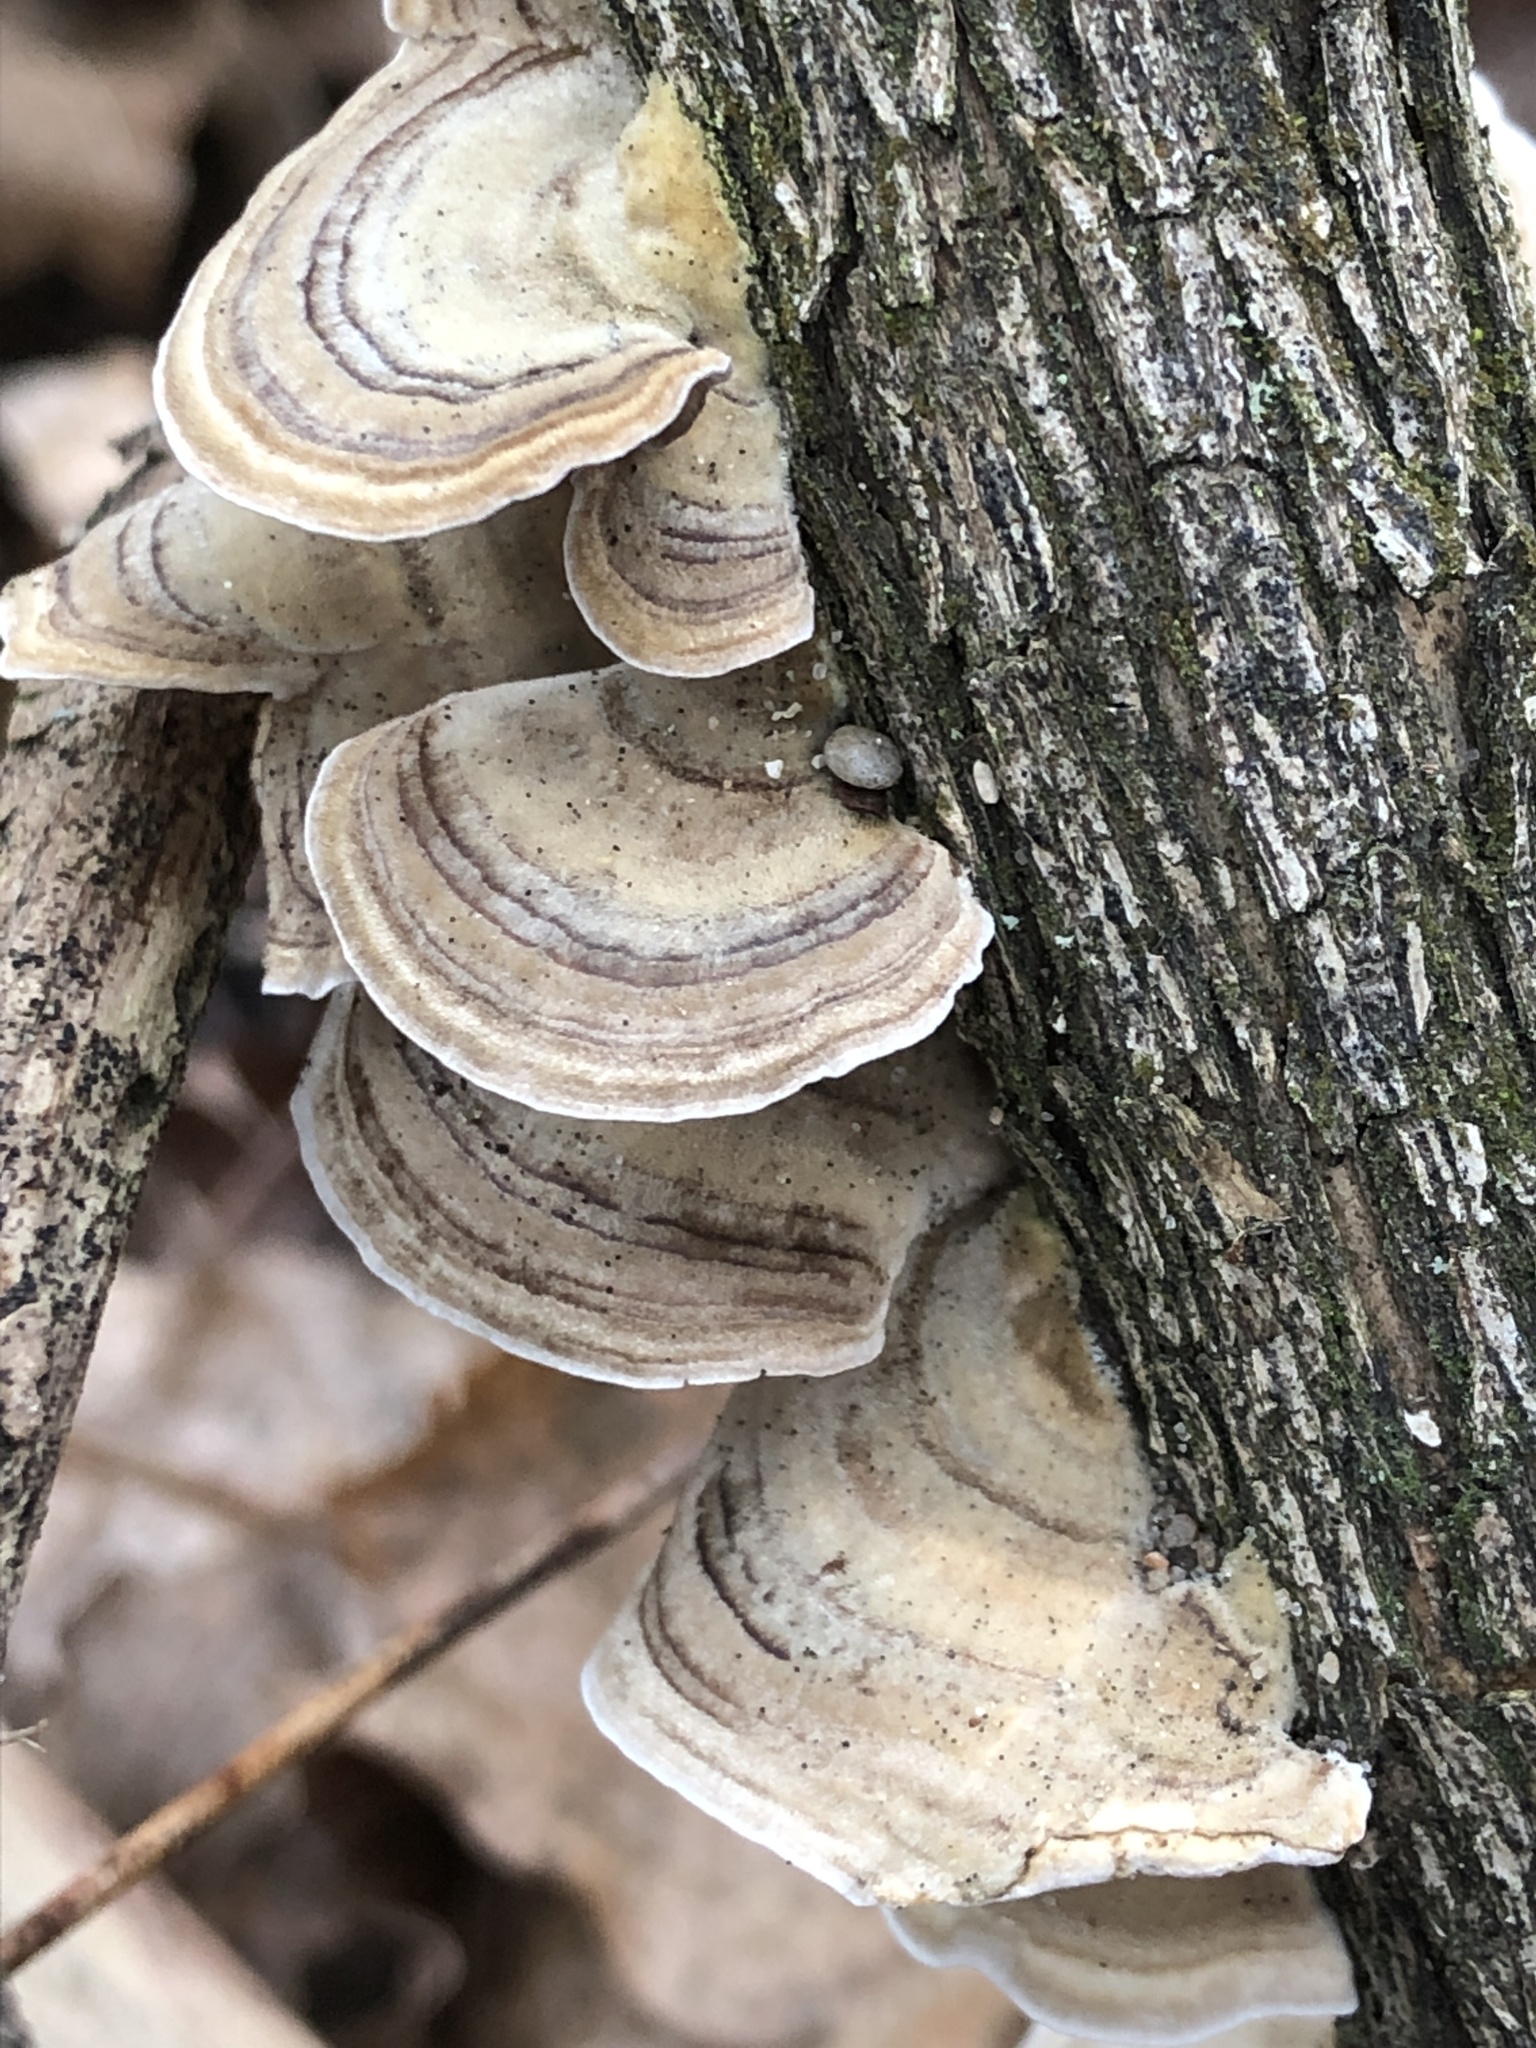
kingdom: Fungi
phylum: Basidiomycota
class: Agaricomycetes
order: Polyporales
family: Polyporaceae
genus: Trametes
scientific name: Trametes versicolor
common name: Turkeytail
